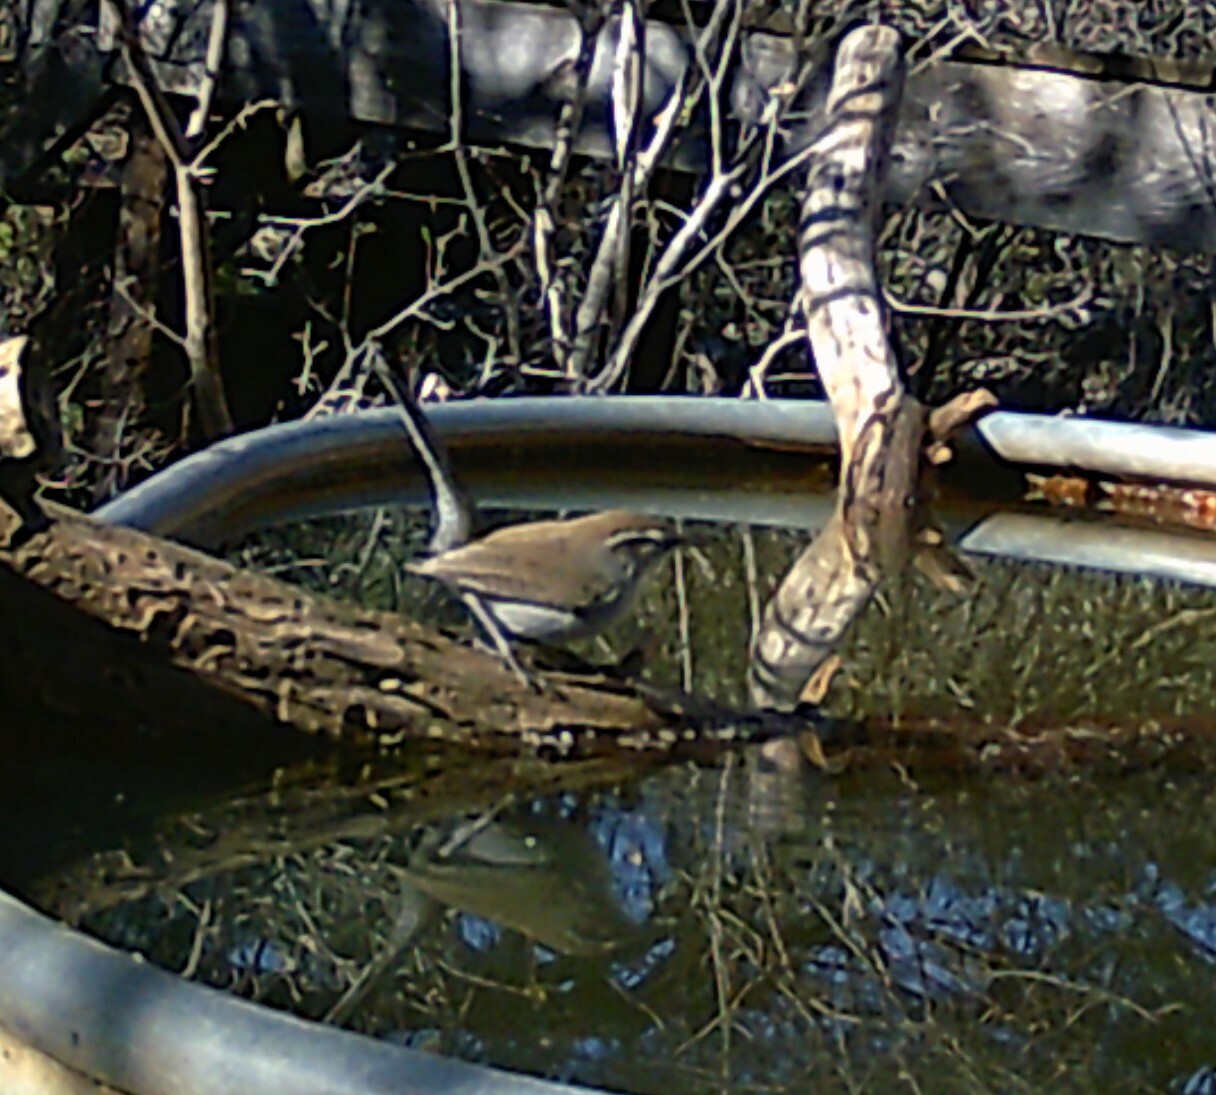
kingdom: Animalia
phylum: Chordata
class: Aves
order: Passeriformes
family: Troglodytidae
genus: Thryomanes
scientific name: Thryomanes bewickii
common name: Bewick's wren
